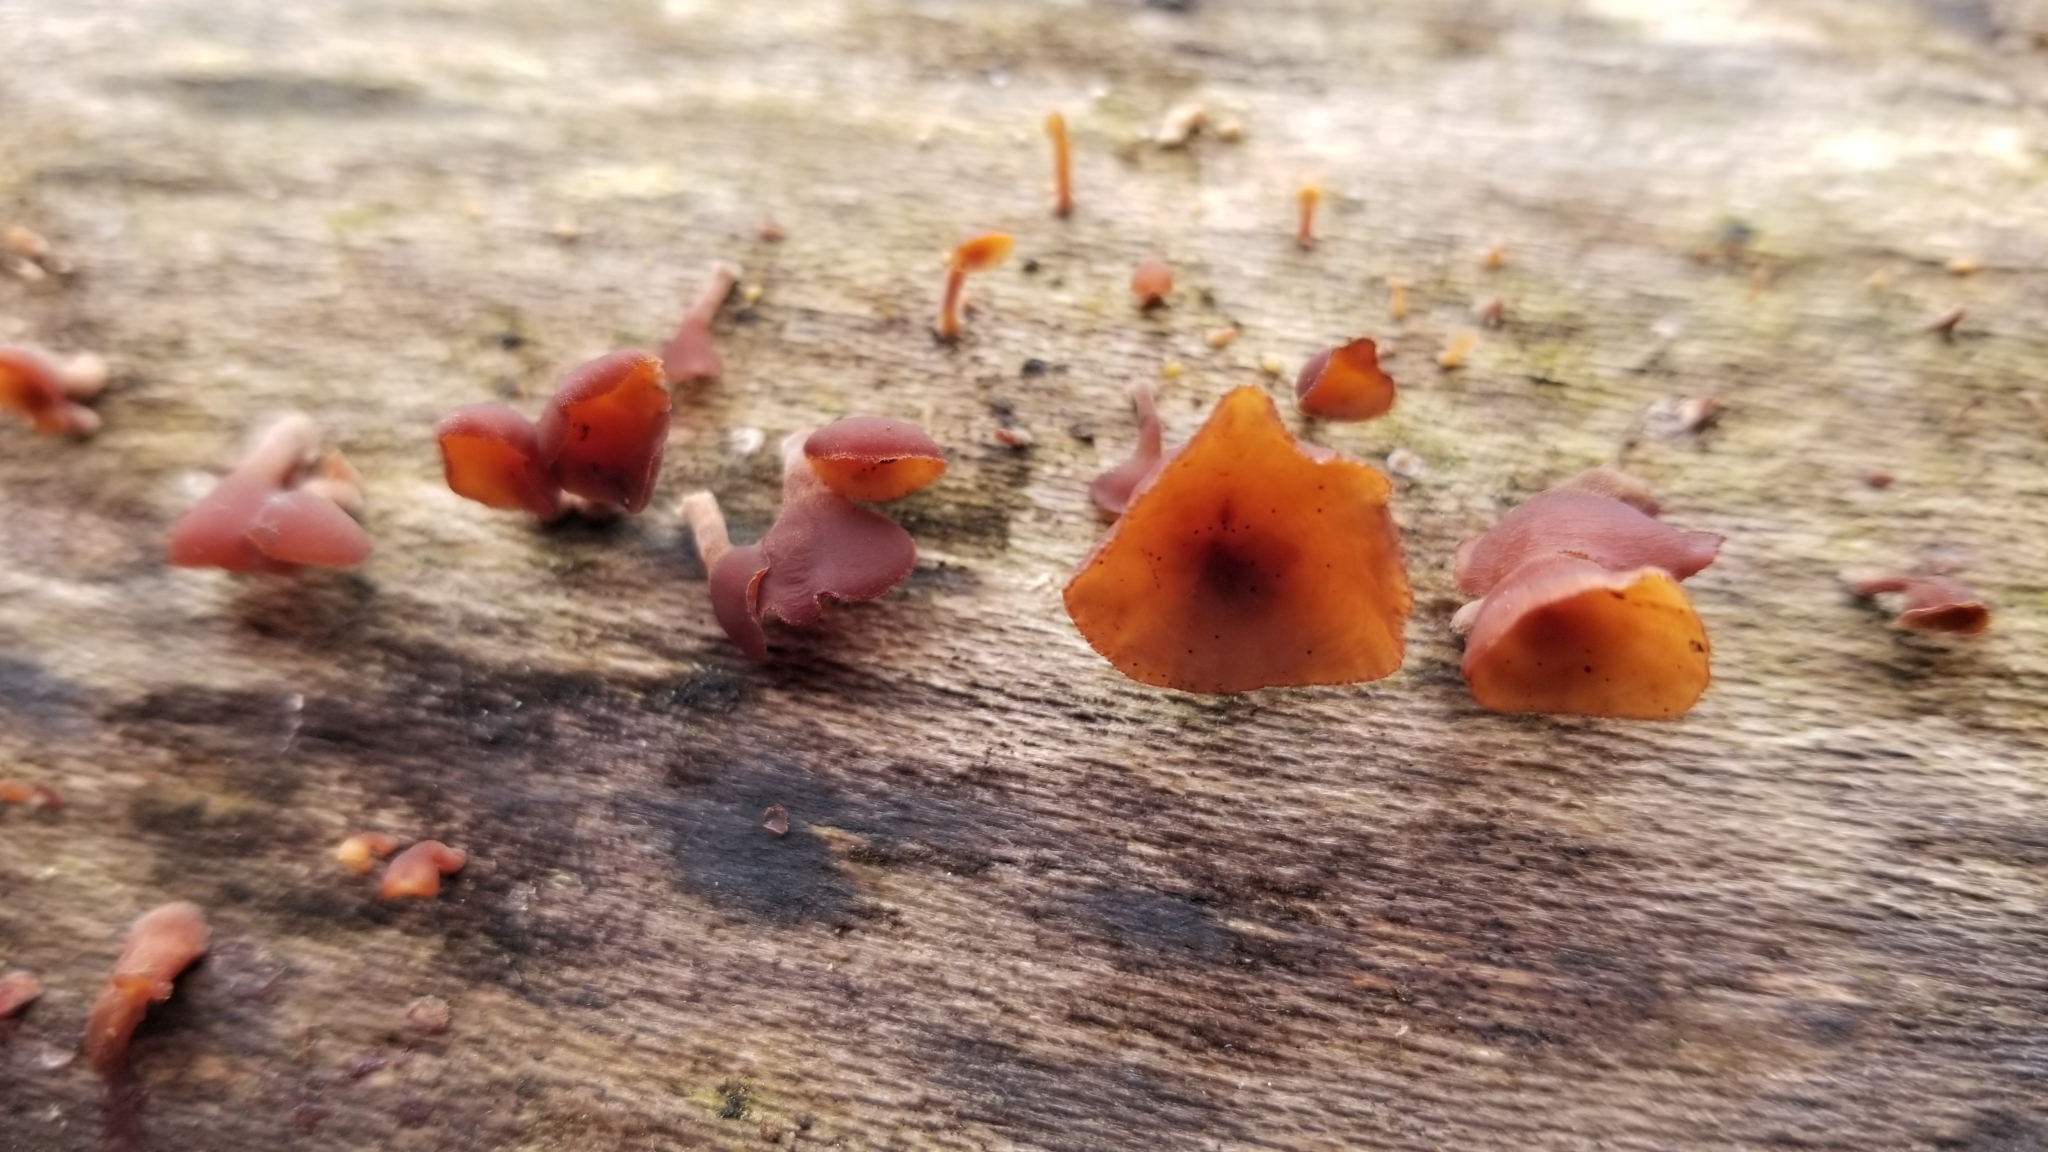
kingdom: Fungi
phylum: Basidiomycota
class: Dacrymycetes
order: Dacrymycetales
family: Dacrymycetaceae
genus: Dacryopinax
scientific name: Dacryopinax elegans
